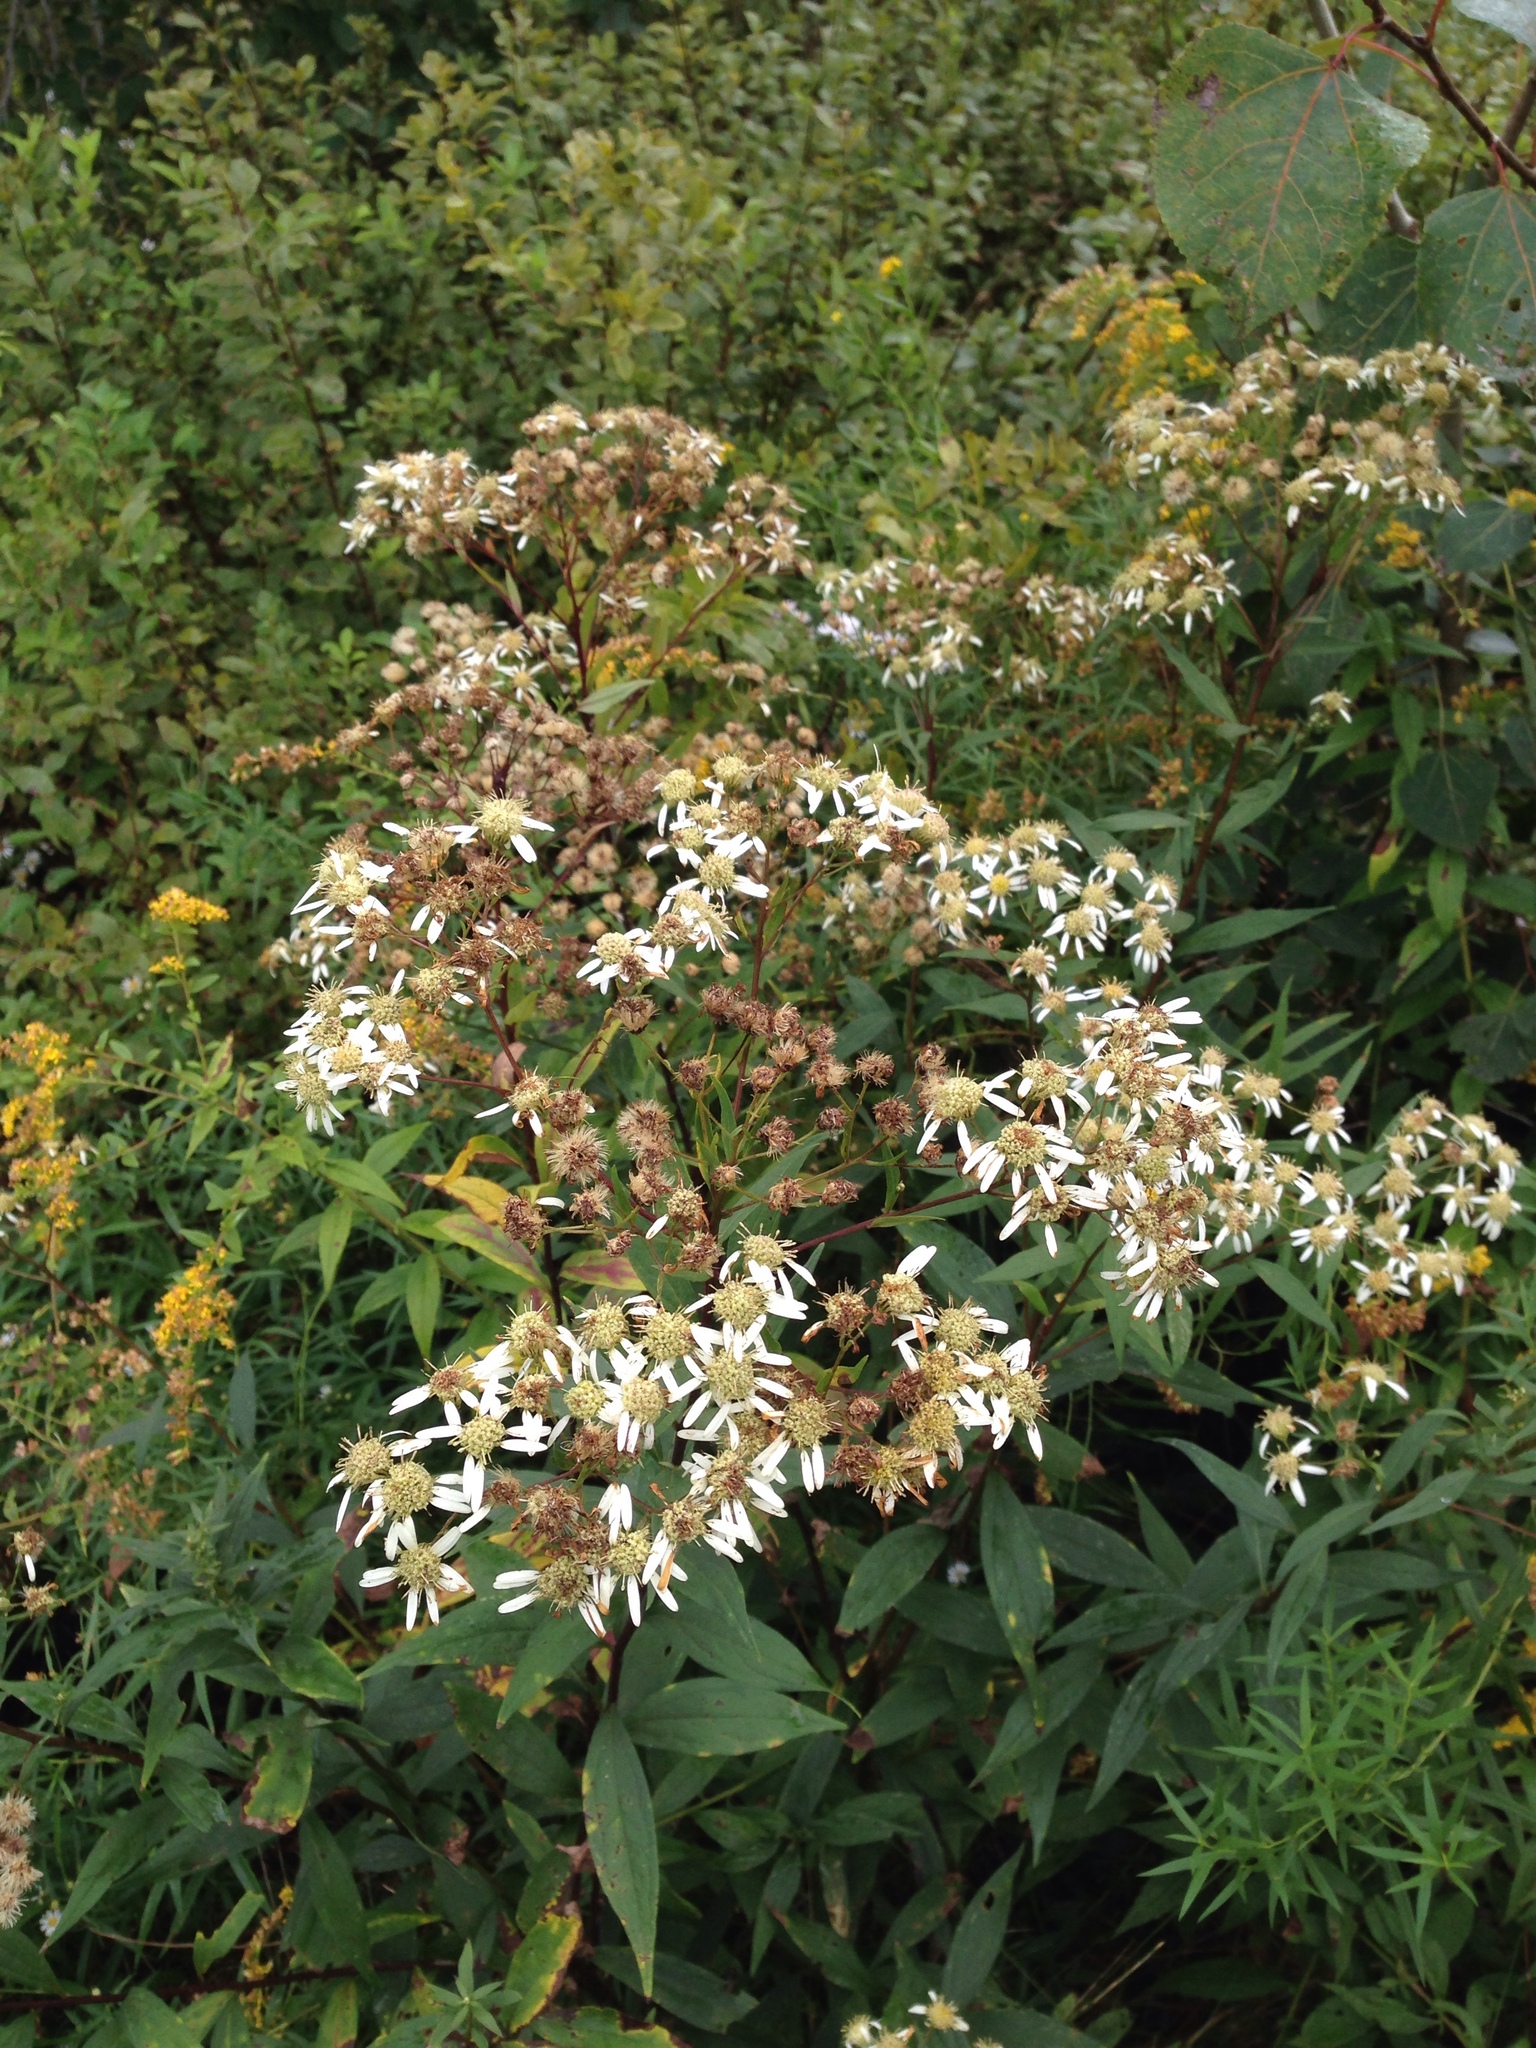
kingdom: Plantae
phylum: Tracheophyta
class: Magnoliopsida
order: Asterales
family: Asteraceae
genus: Doellingeria
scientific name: Doellingeria umbellata
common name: Flat-top white aster
